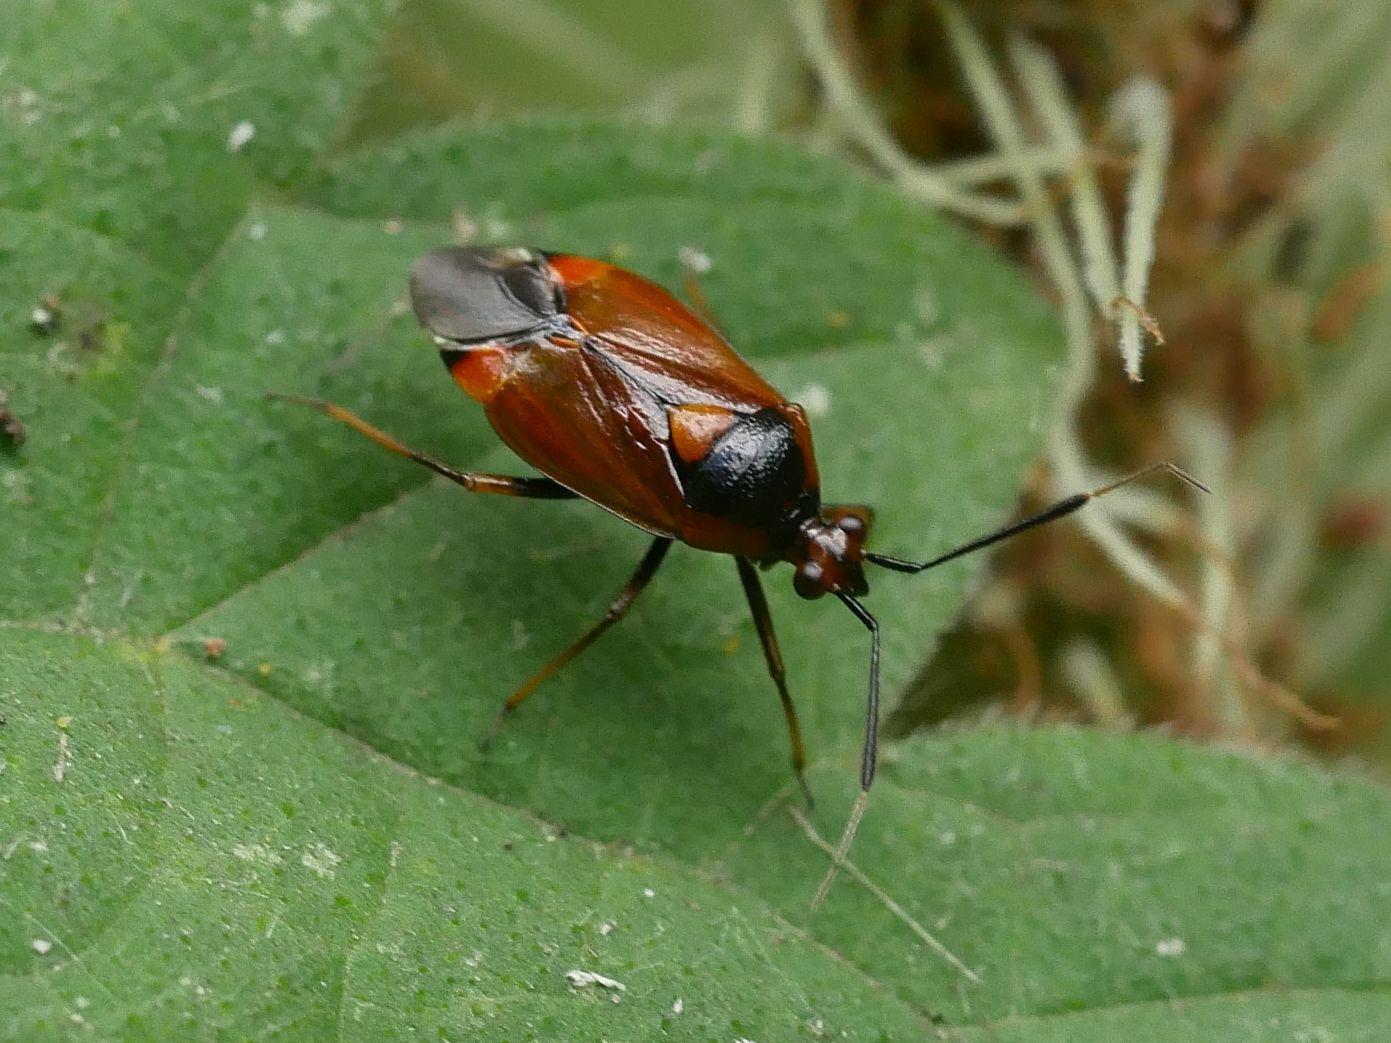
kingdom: Animalia
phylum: Arthropoda
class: Insecta
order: Hemiptera
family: Miridae
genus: Deraeocoris
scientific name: Deraeocoris ruber
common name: Plant bug
